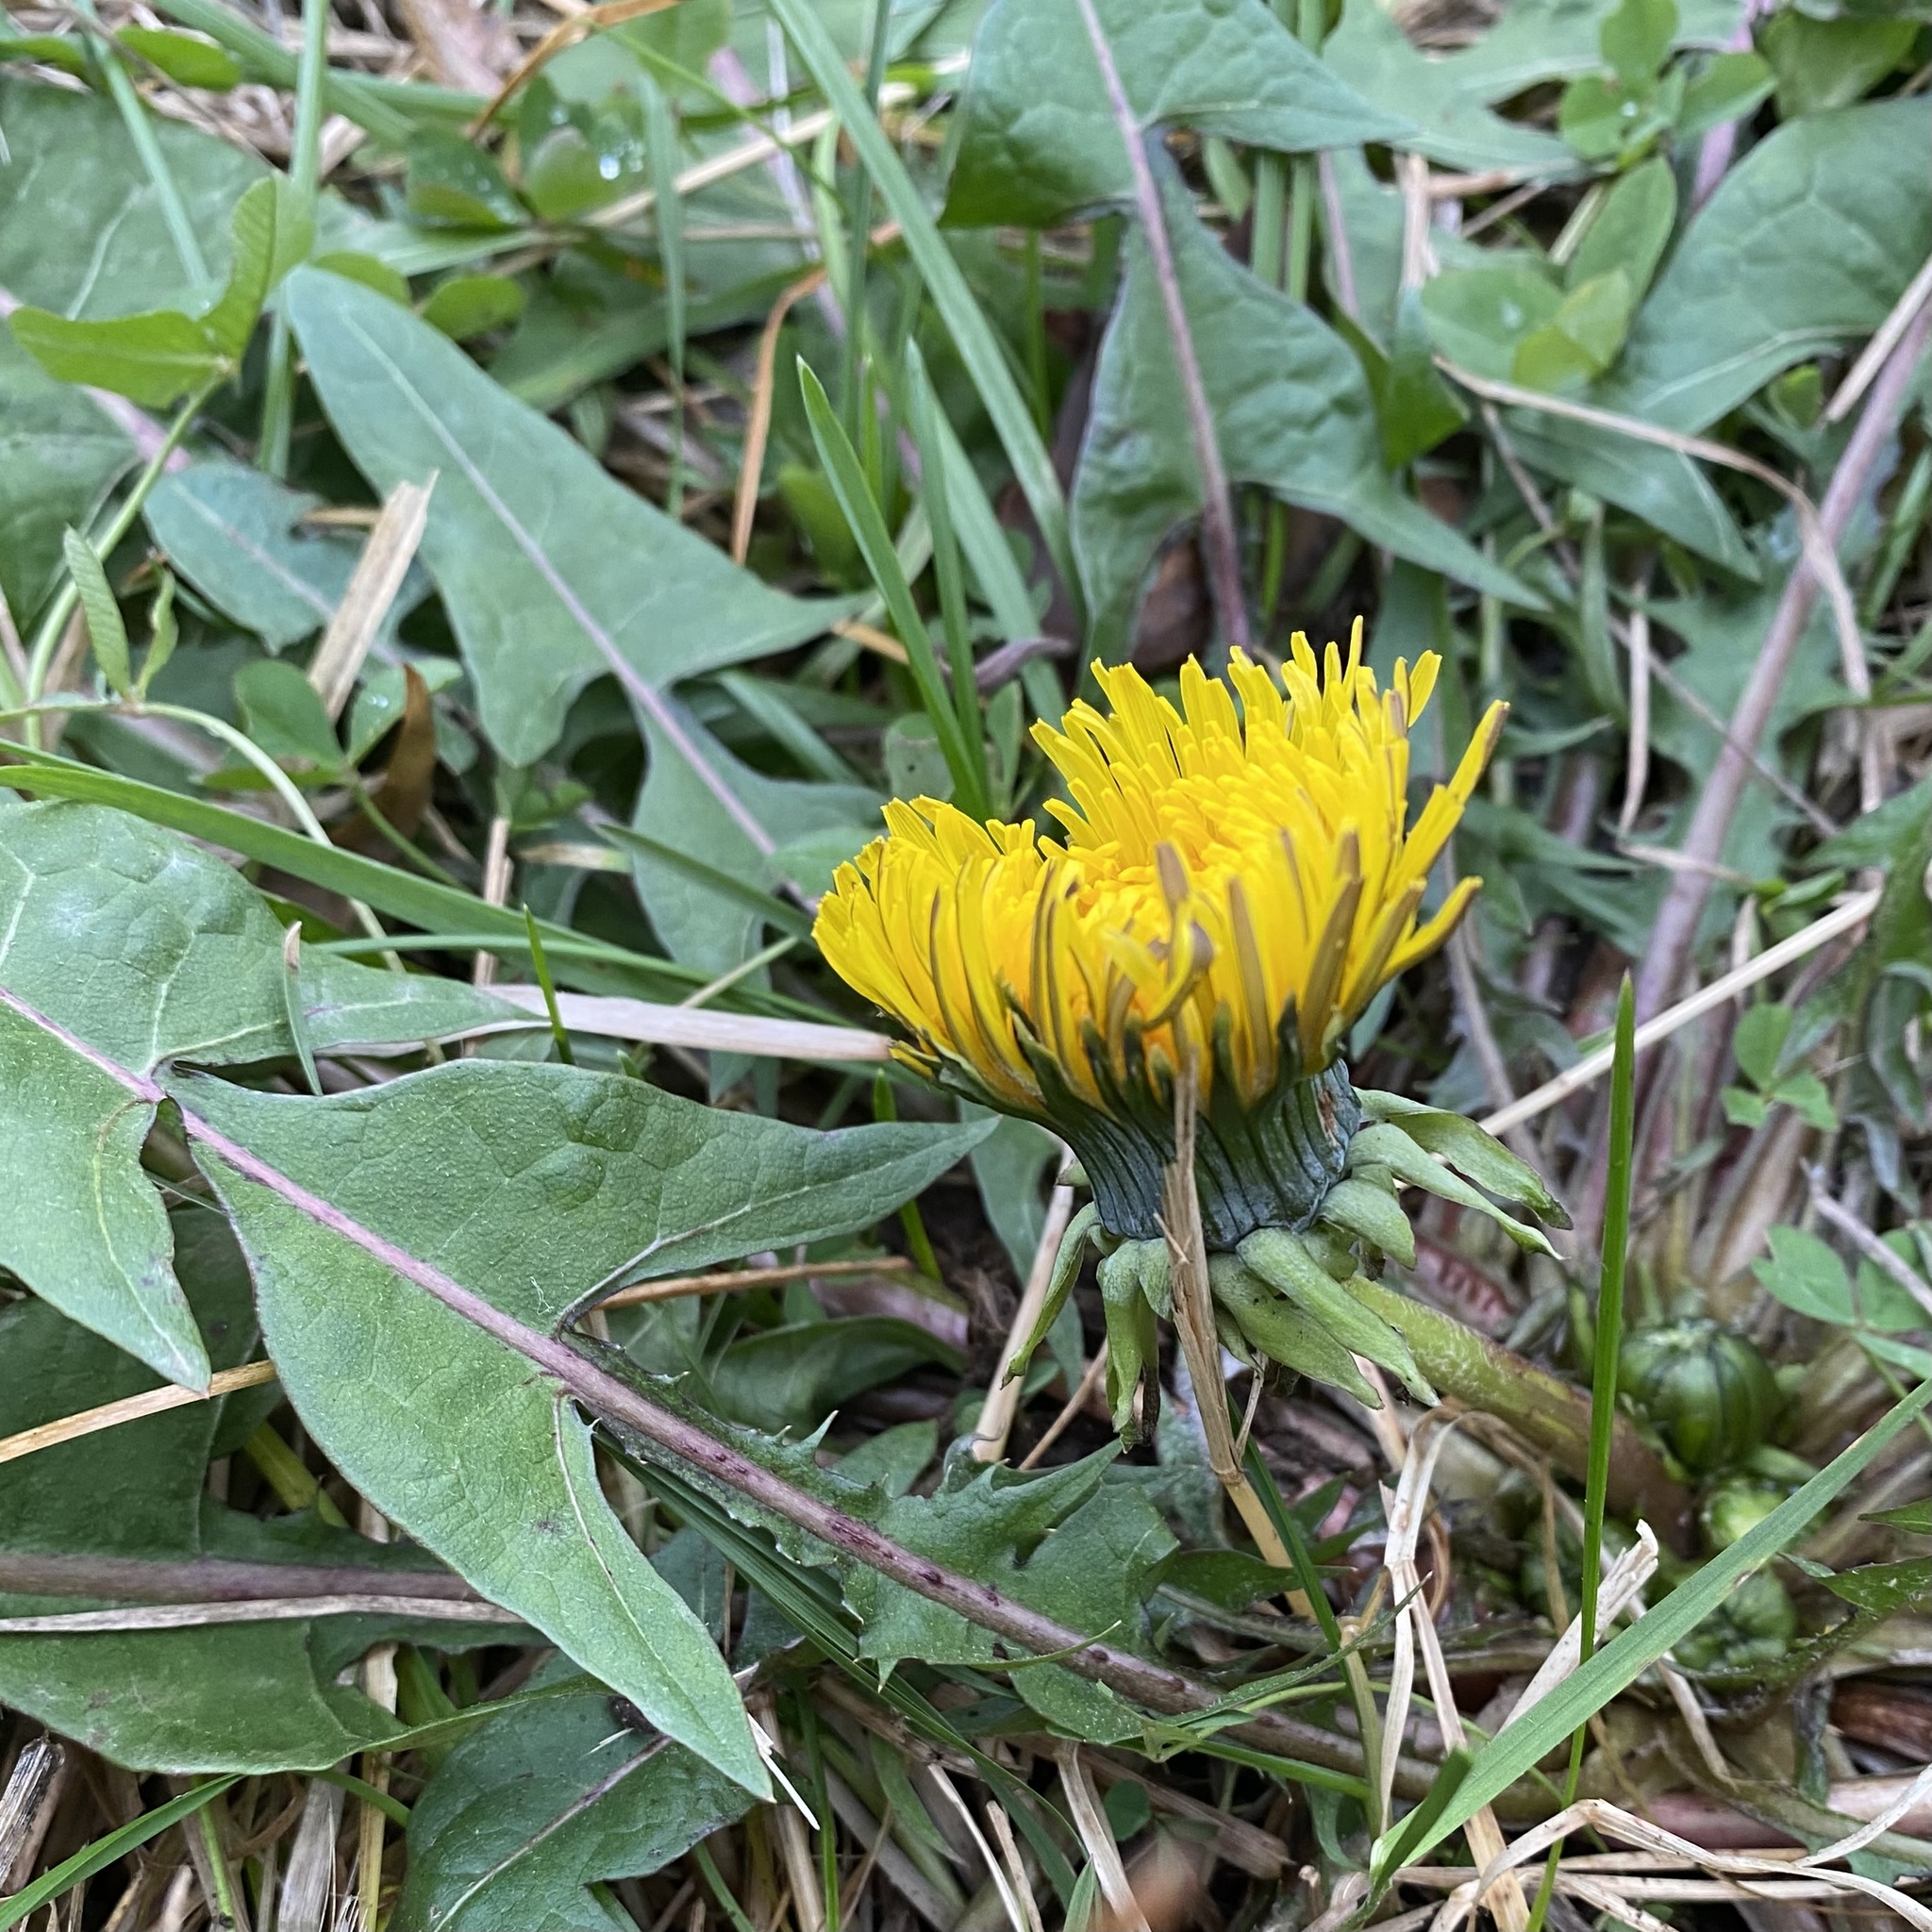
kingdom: Plantae
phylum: Tracheophyta
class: Magnoliopsida
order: Asterales
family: Asteraceae
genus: Taraxacum
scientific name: Taraxacum officinale
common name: Common dandelion
